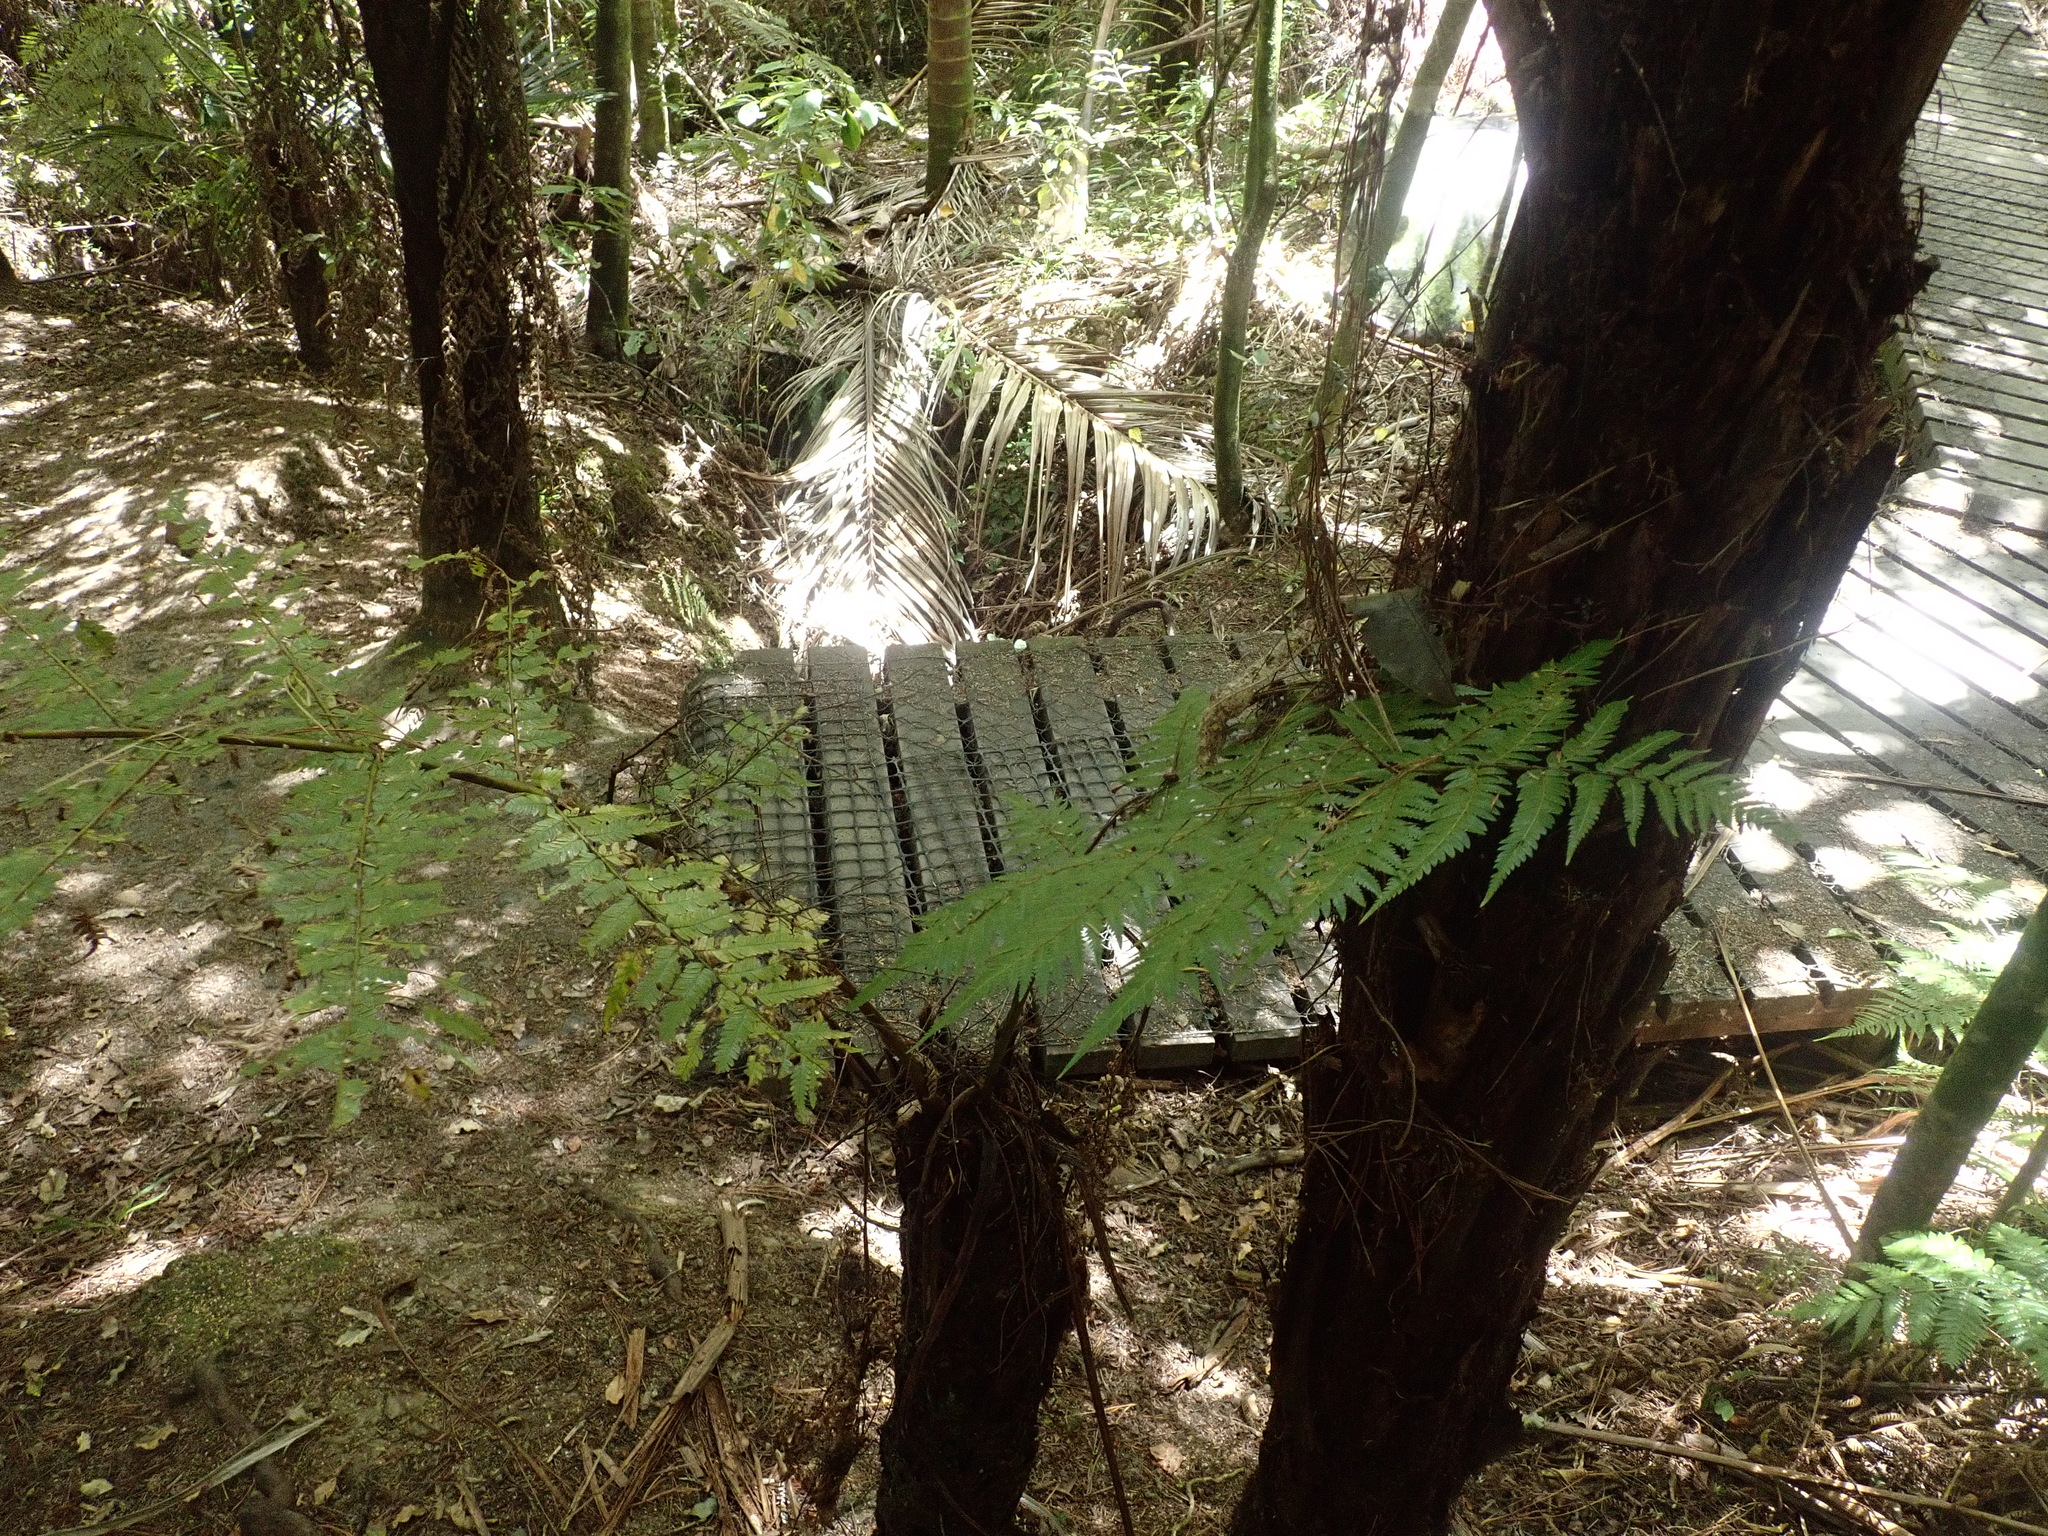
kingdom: Plantae
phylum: Tracheophyta
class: Liliopsida
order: Arecales
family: Arecaceae
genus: Rhopalostylis
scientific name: Rhopalostylis sapida
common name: Feather-duster palm
